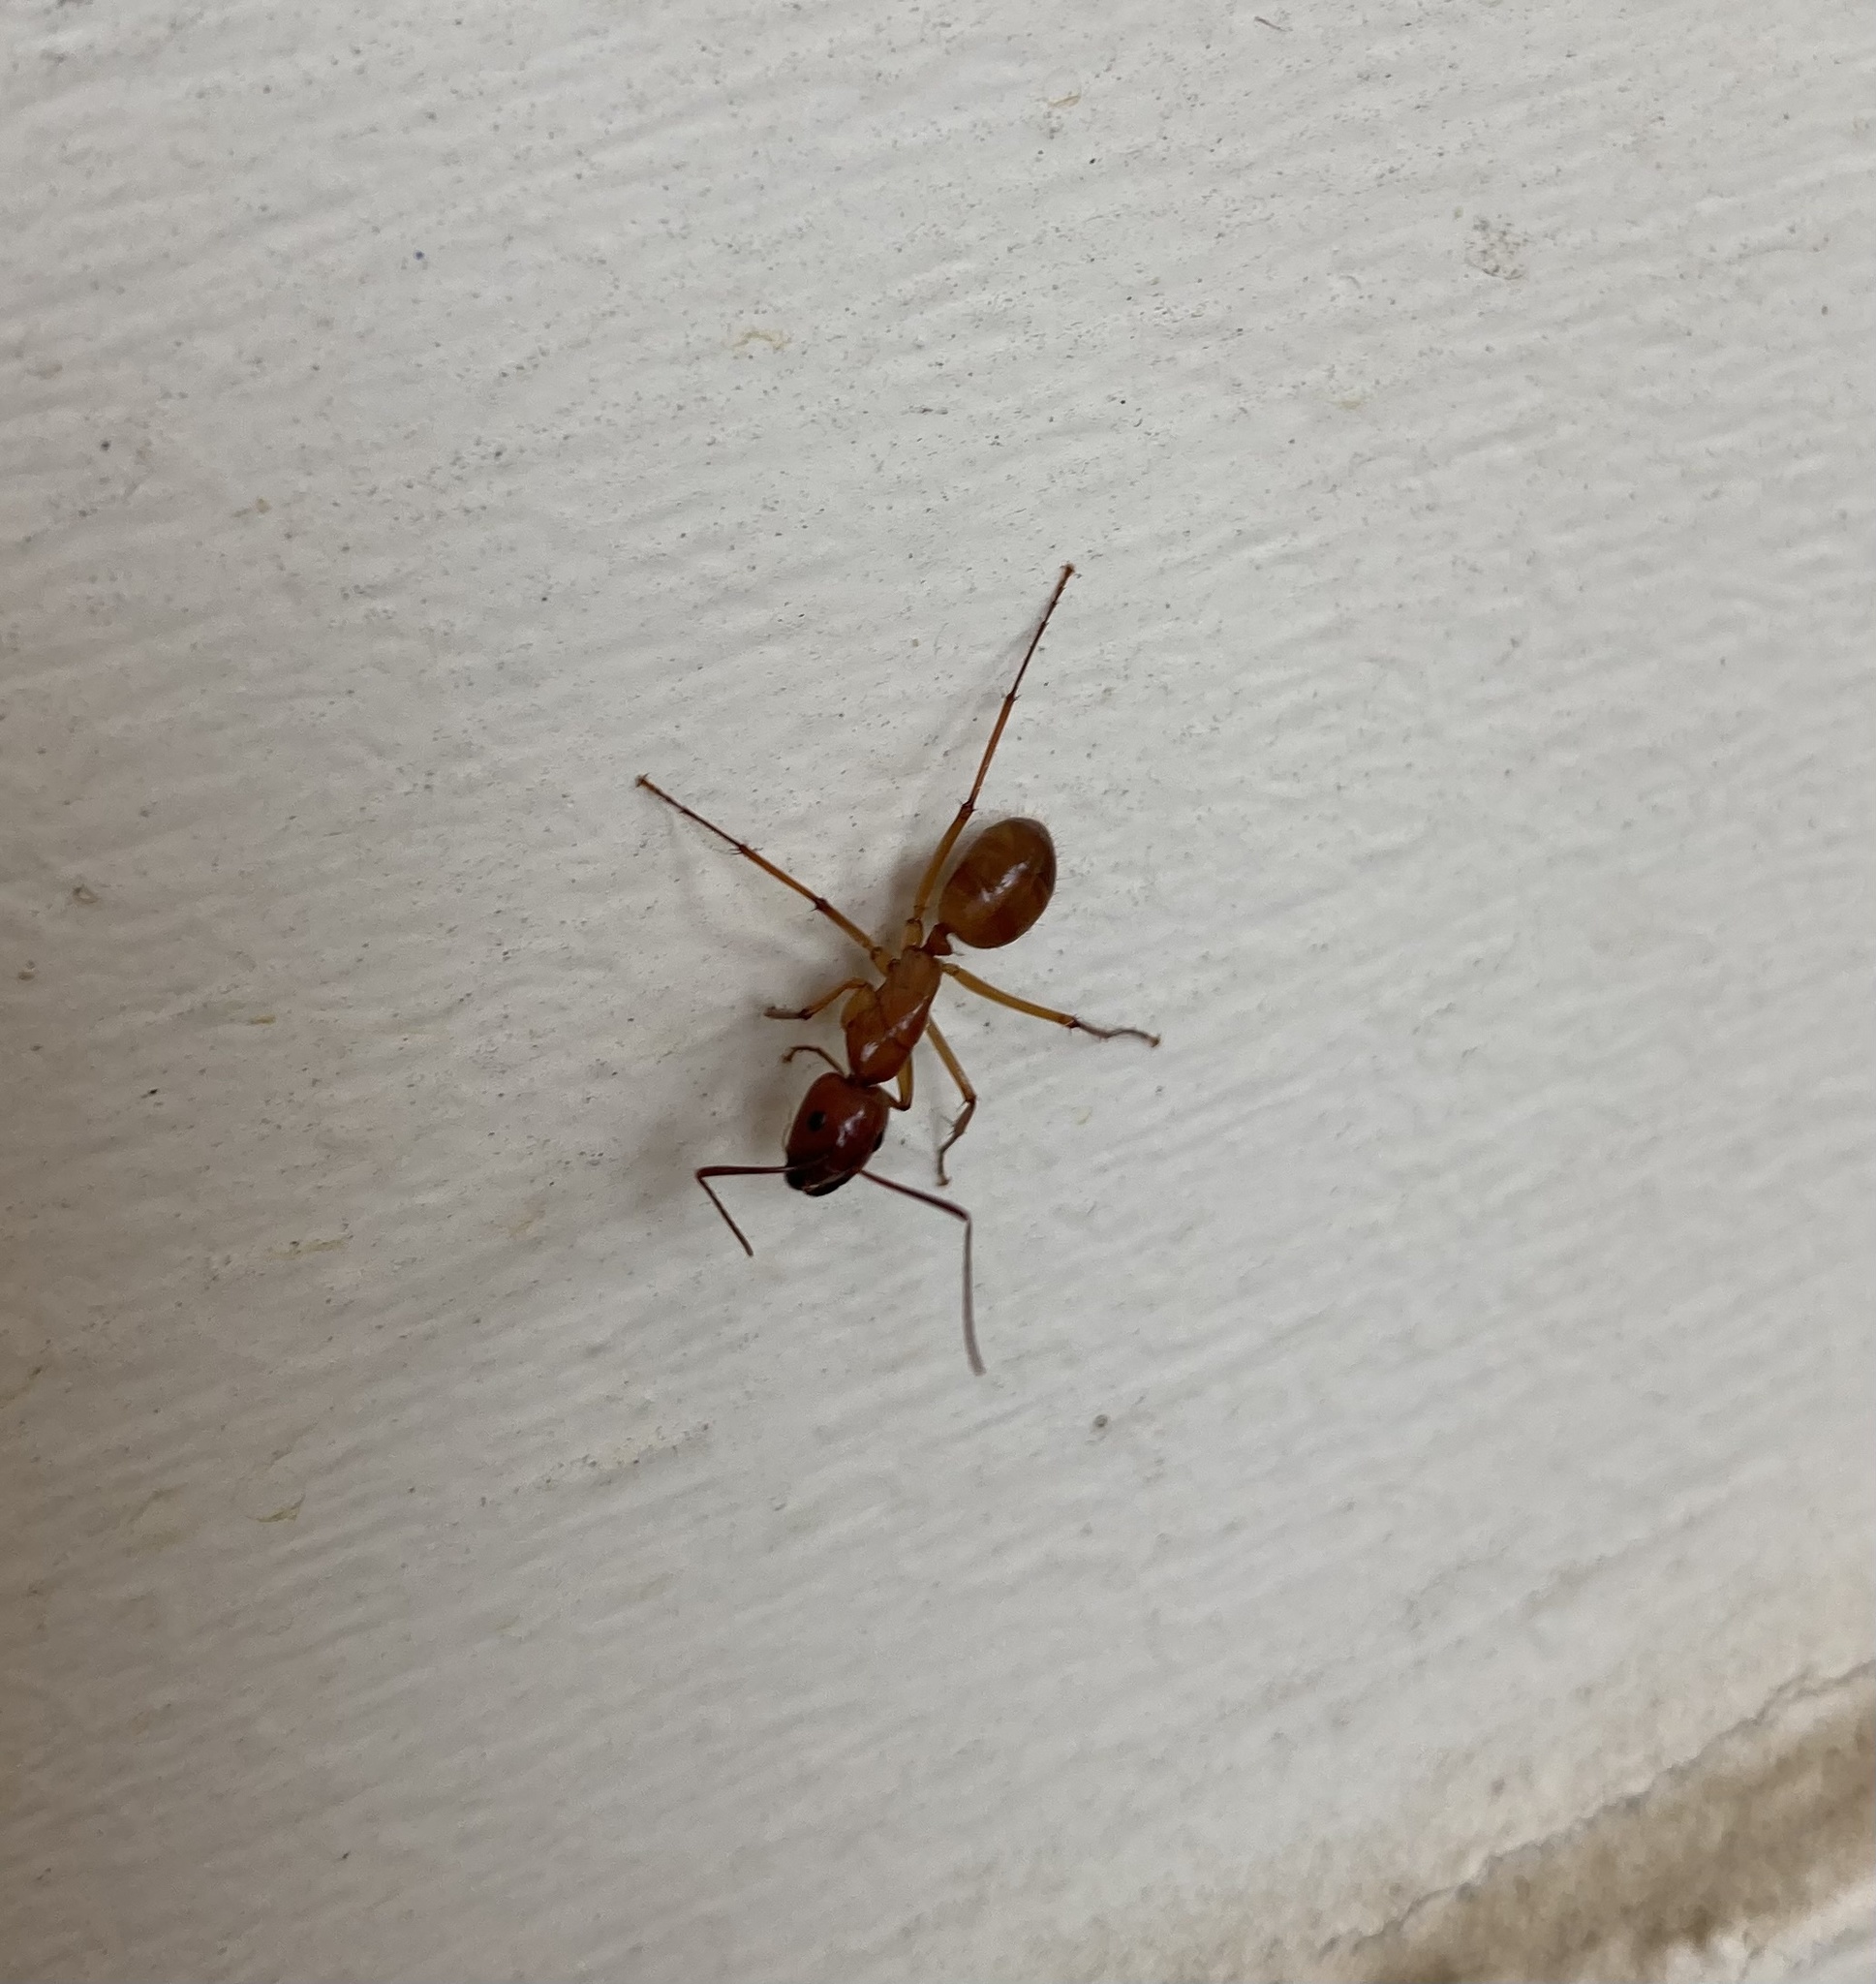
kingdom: Animalia
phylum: Arthropoda
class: Insecta
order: Hymenoptera
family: Formicidae
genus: Camponotus
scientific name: Camponotus castaneus
